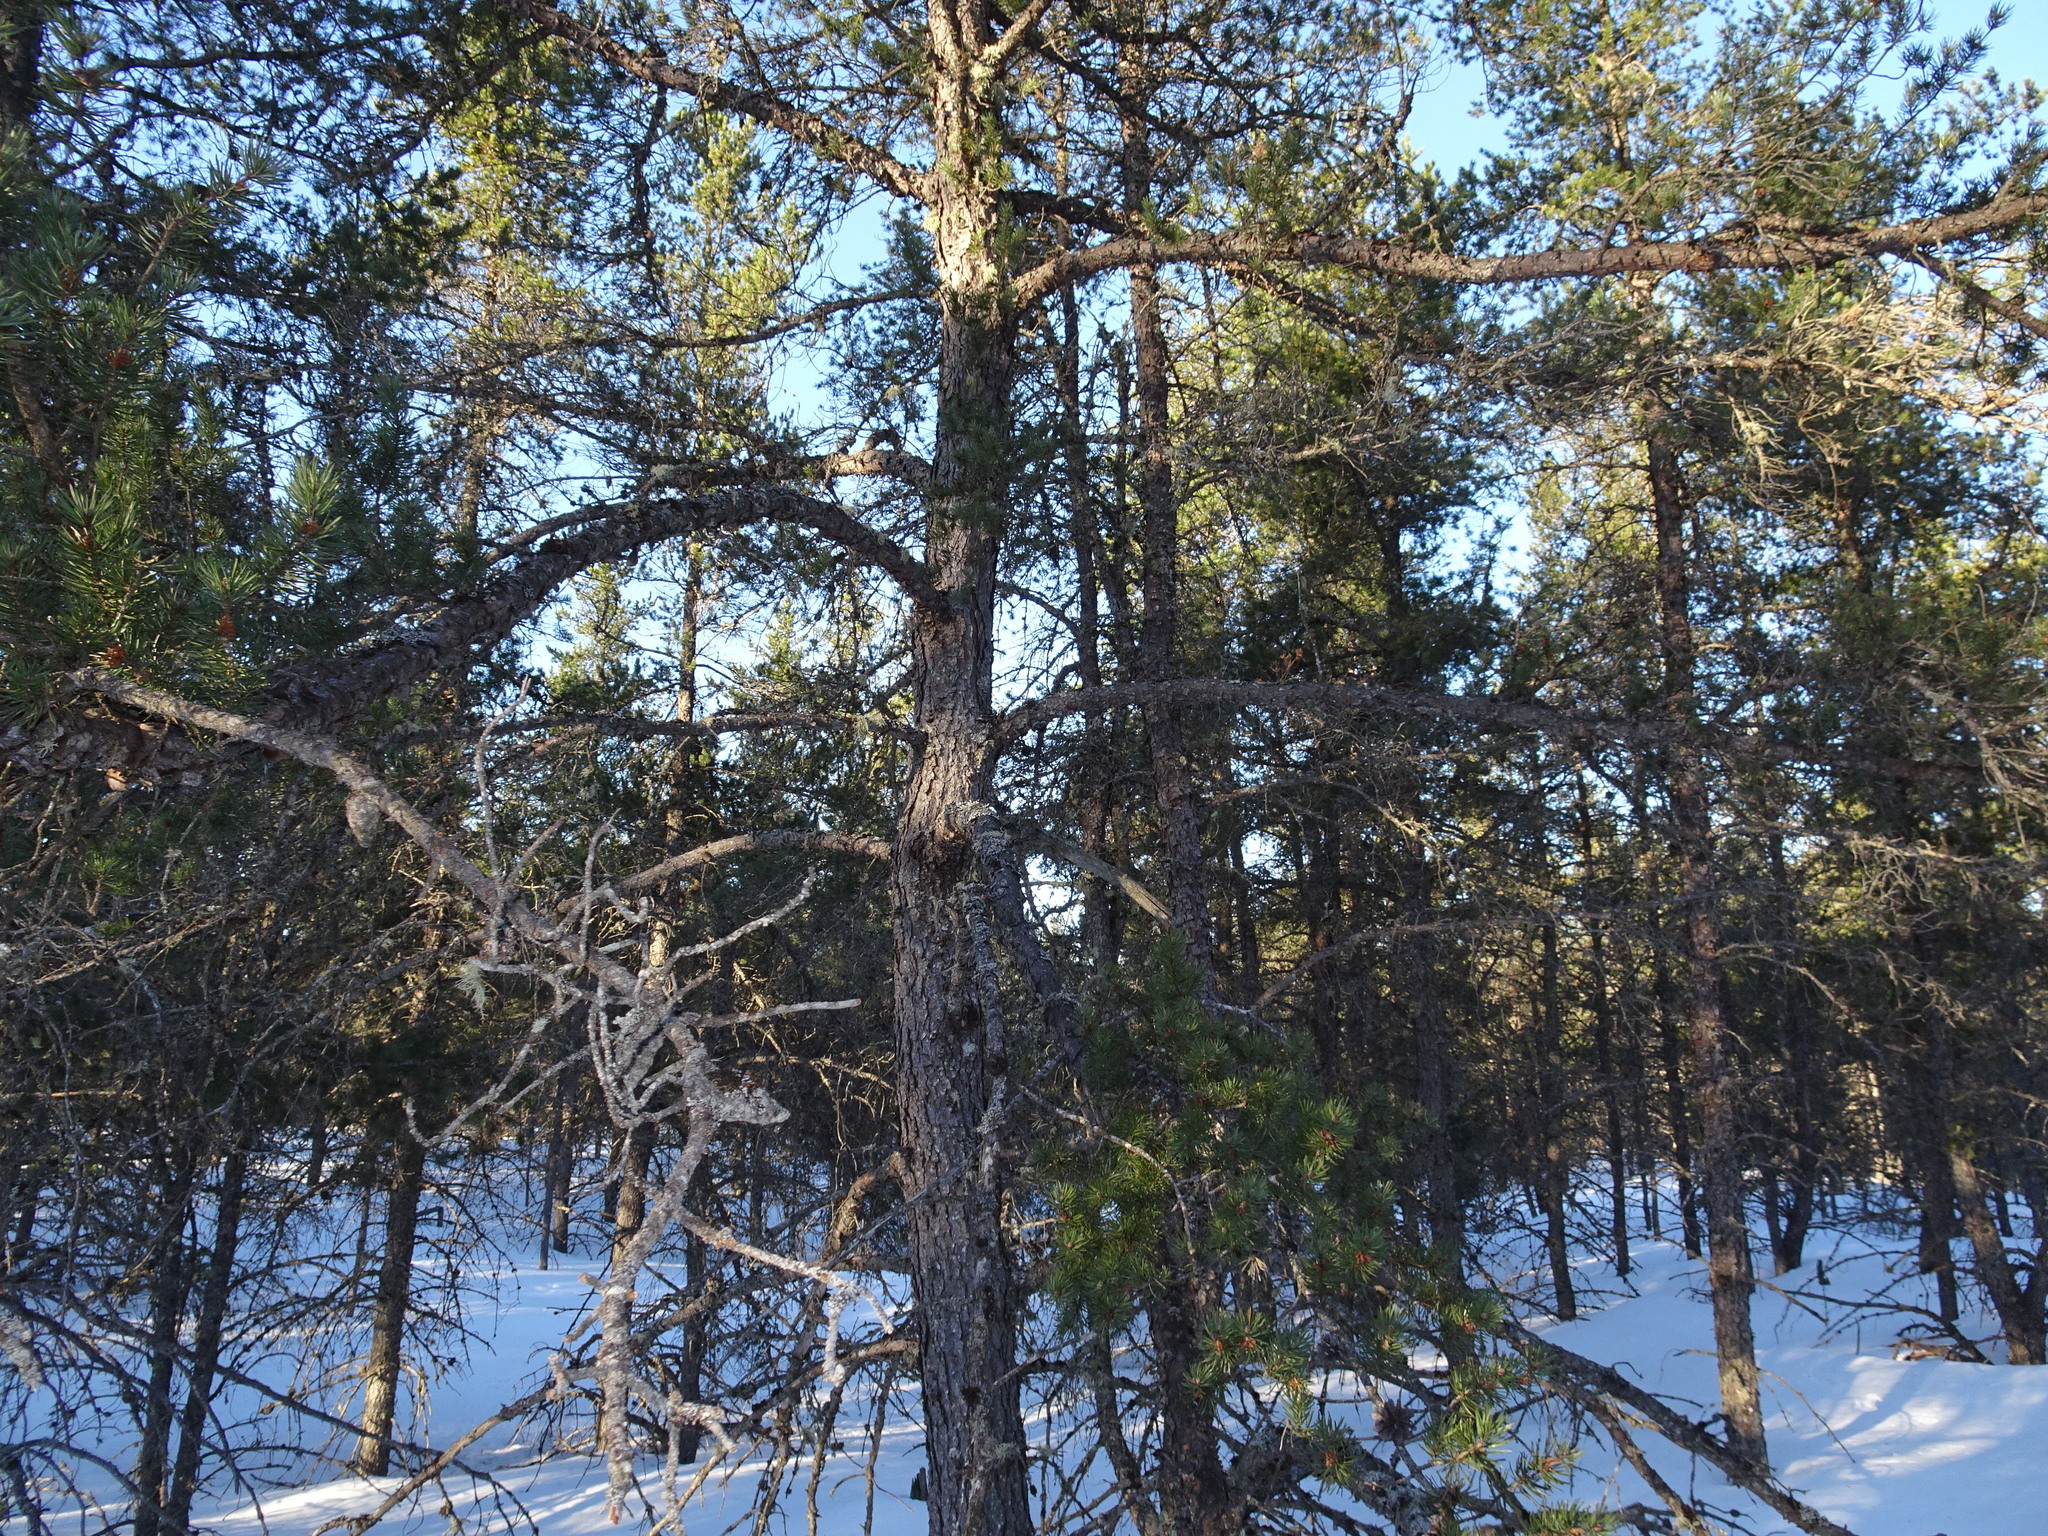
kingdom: Plantae
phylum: Tracheophyta
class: Pinopsida
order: Pinales
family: Pinaceae
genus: Pinus
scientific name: Pinus banksiana
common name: Jack pine
